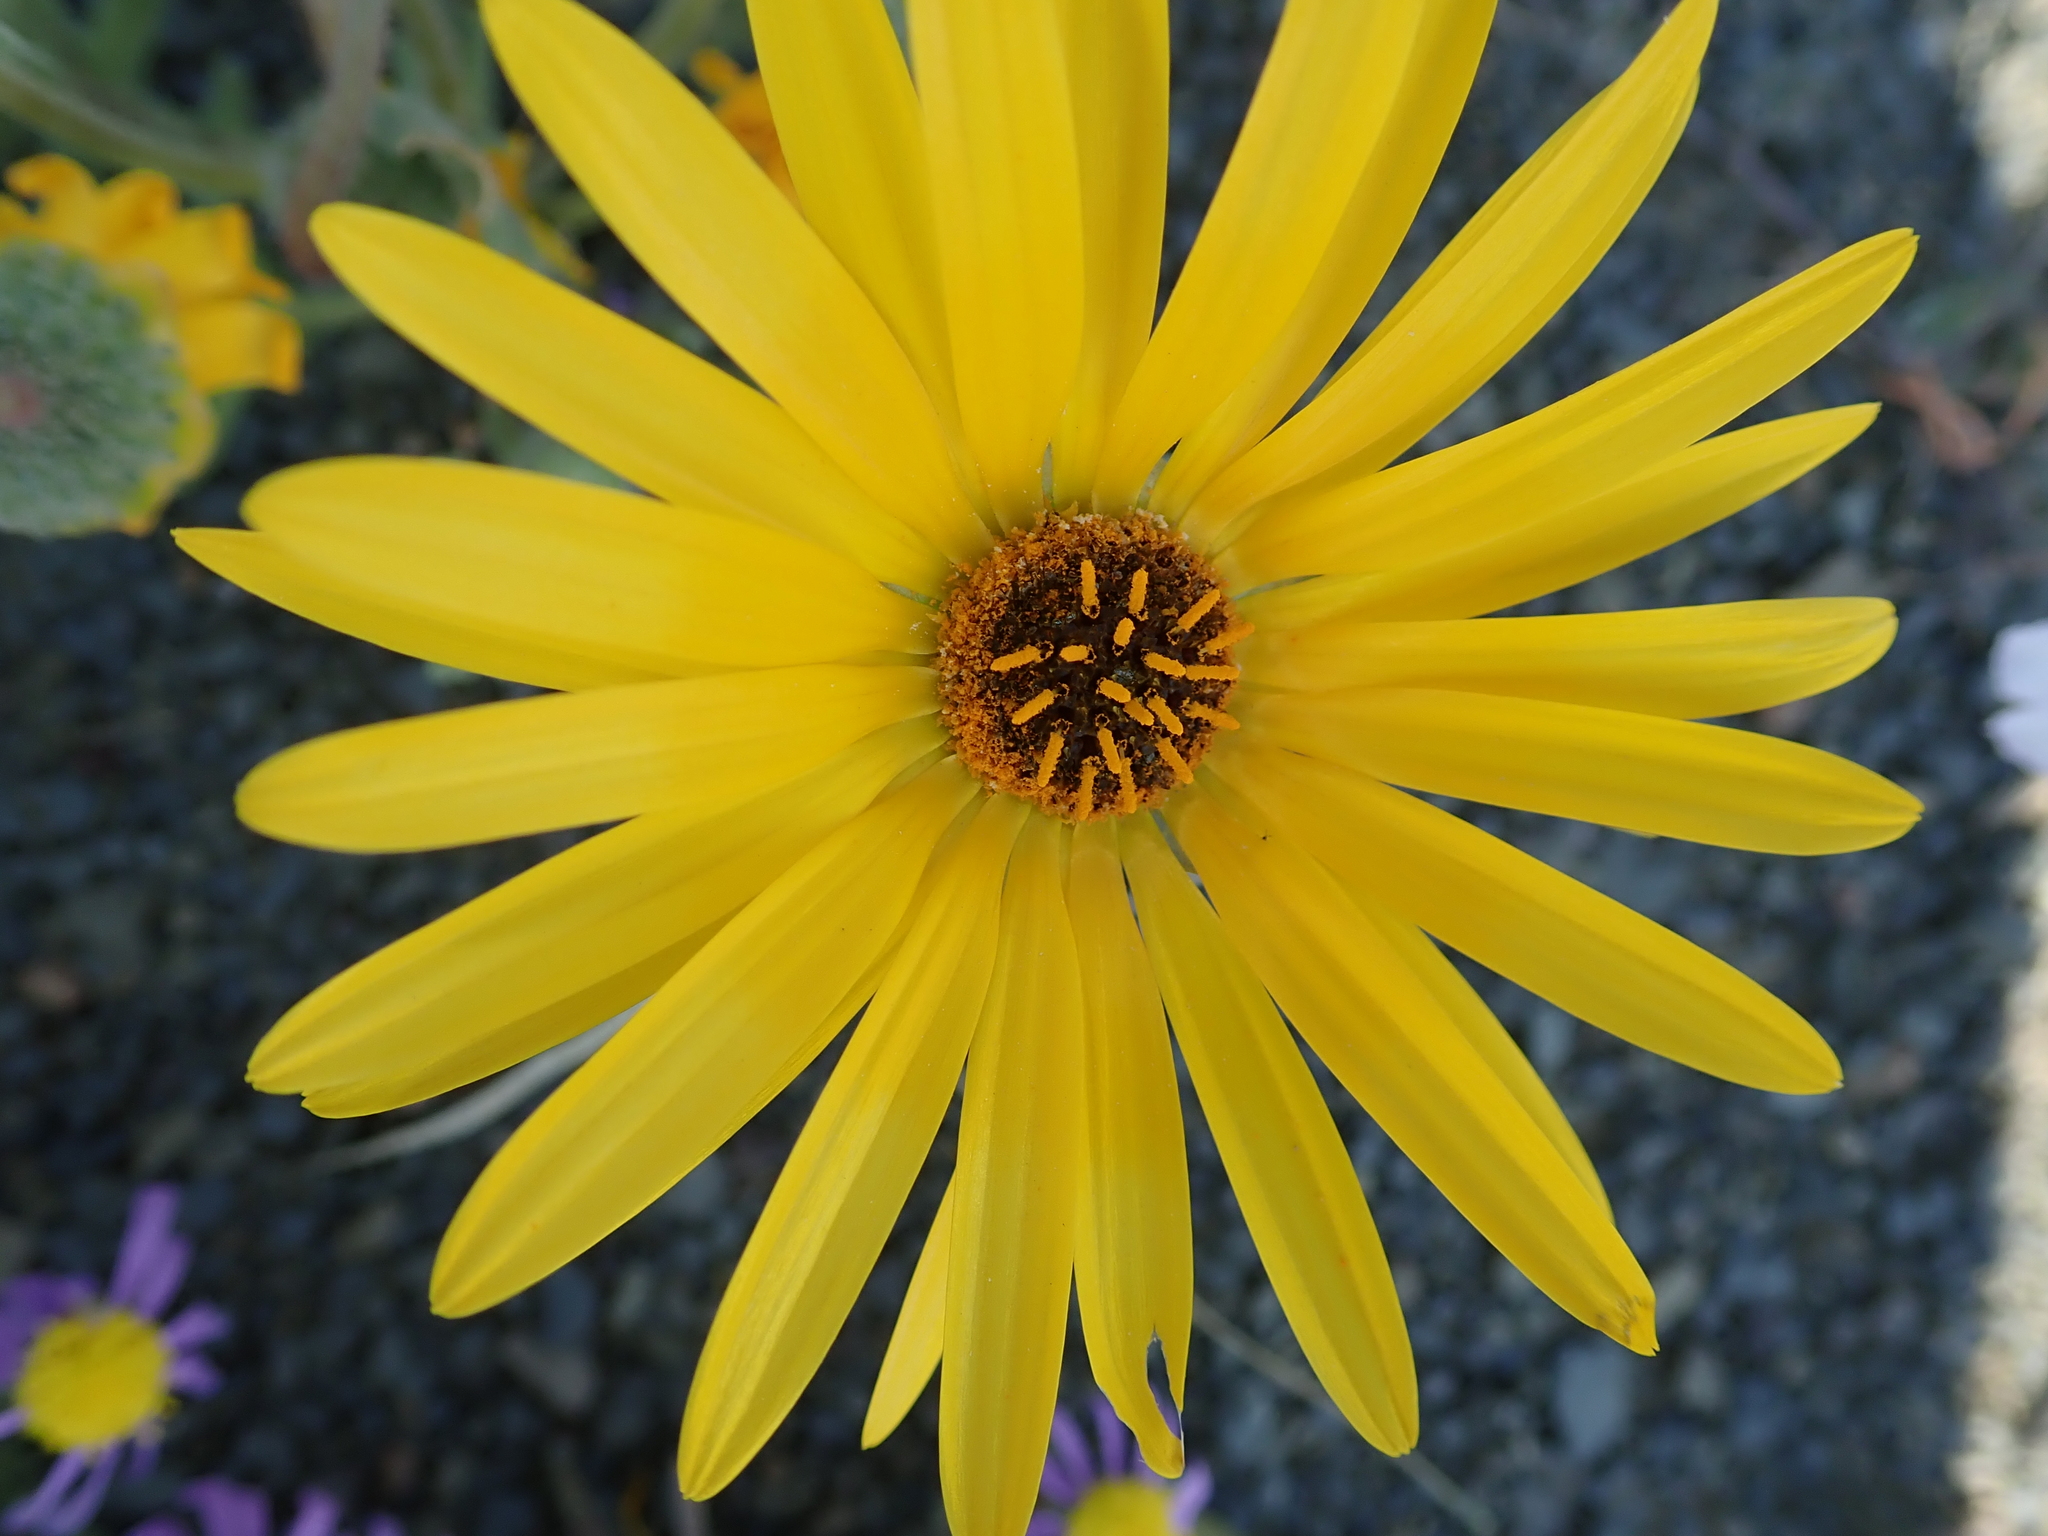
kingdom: Plantae
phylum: Tracheophyta
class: Magnoliopsida
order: Asterales
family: Asteraceae
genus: Arctotis
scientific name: Arctotis hirsuta
